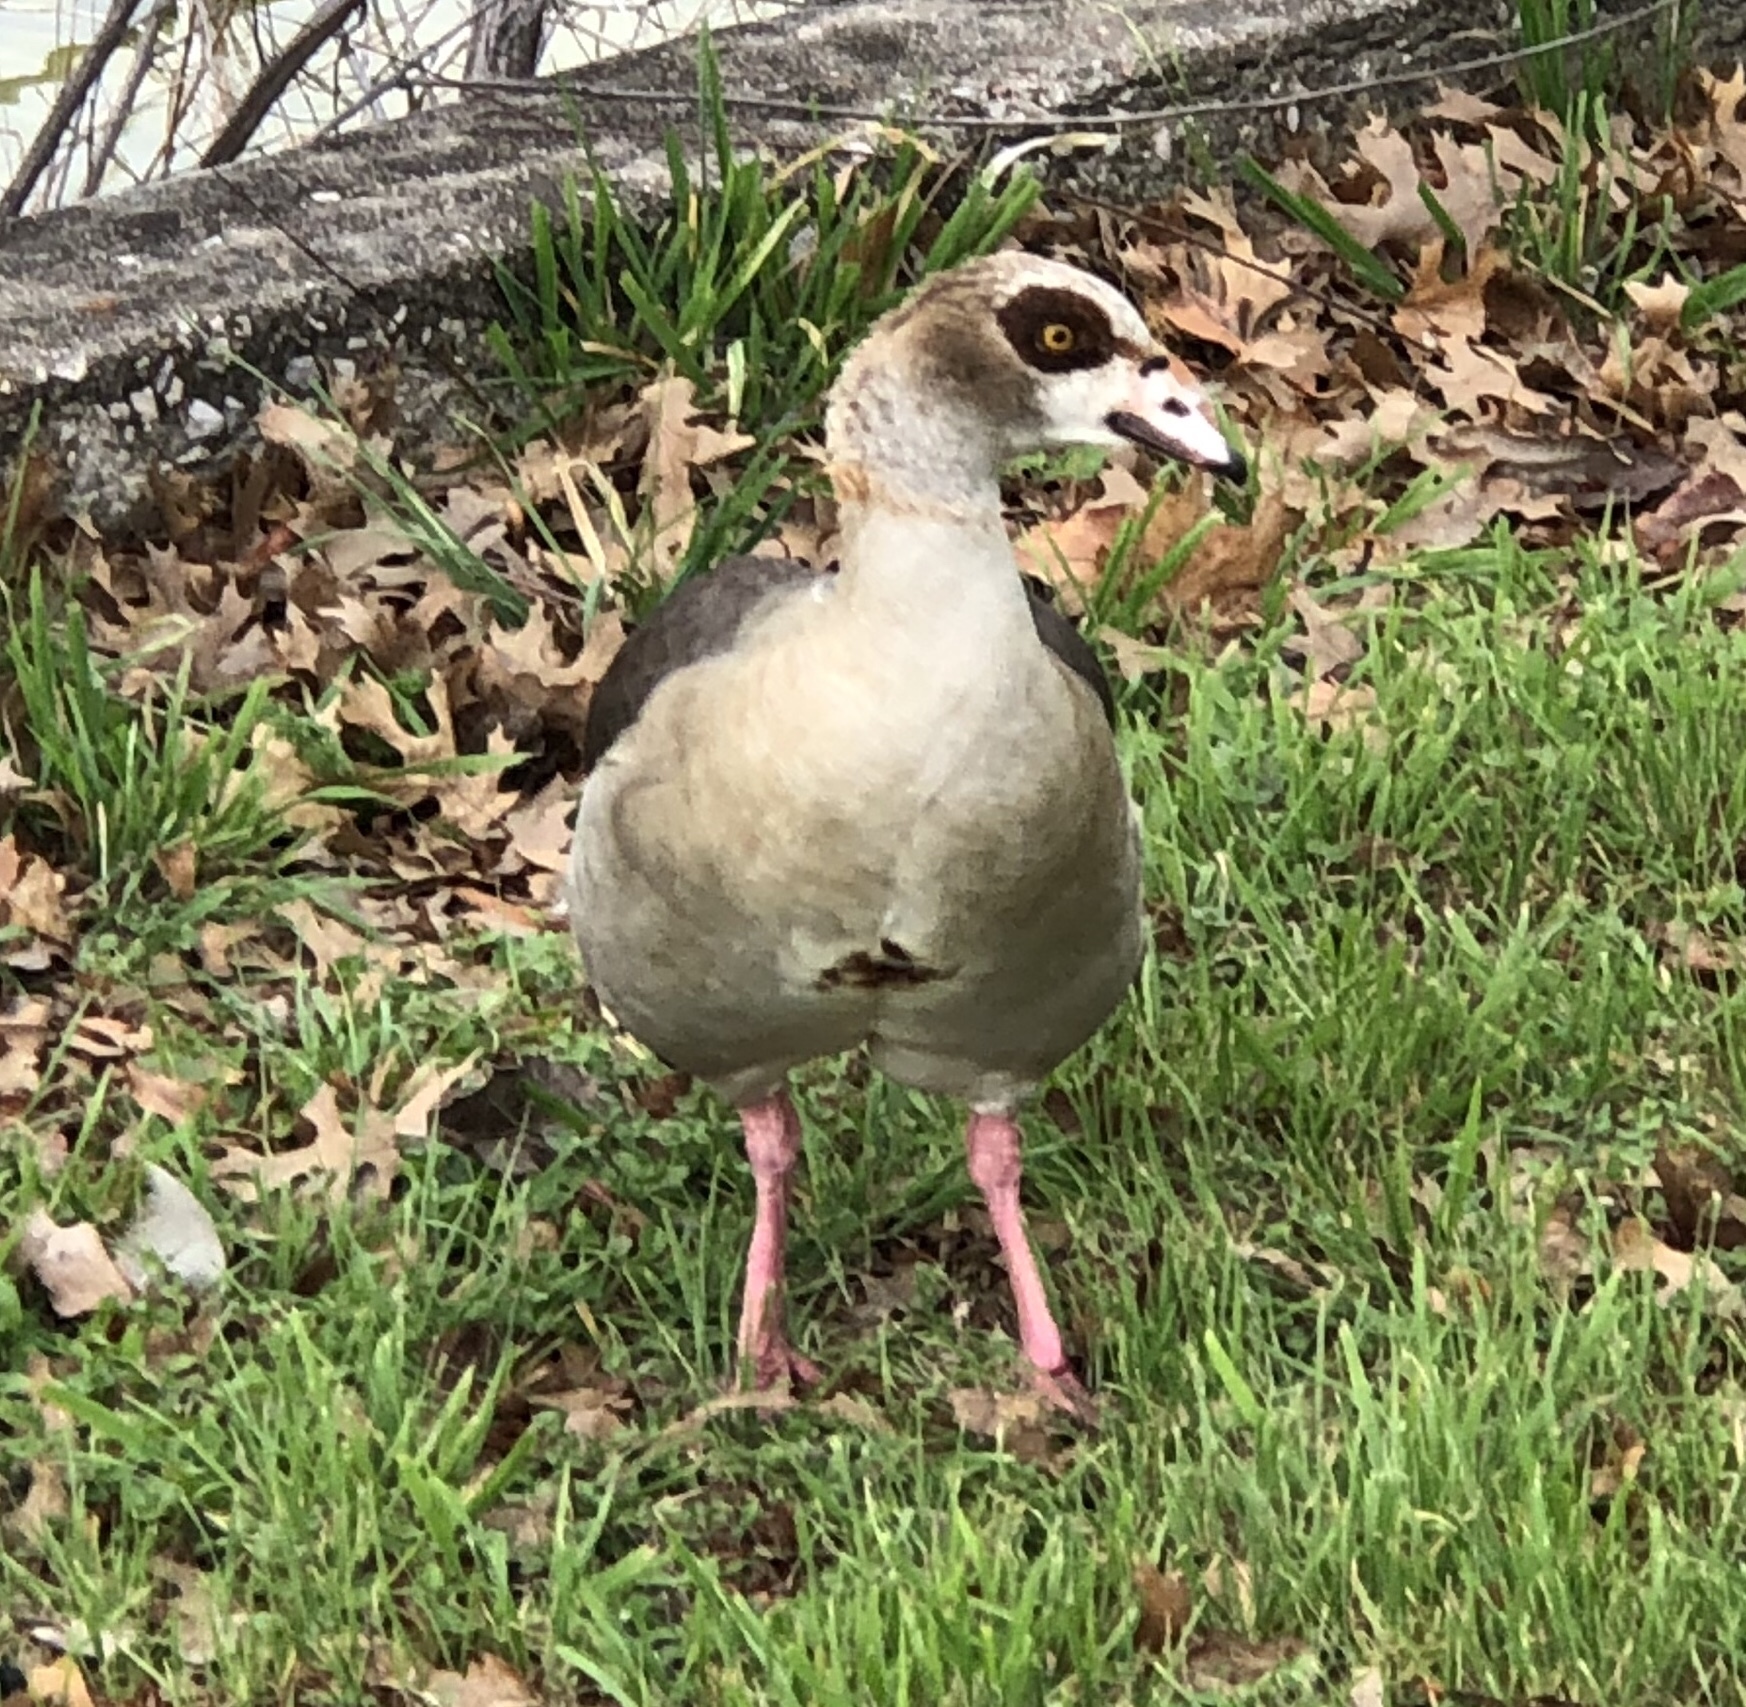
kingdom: Animalia
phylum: Chordata
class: Aves
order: Anseriformes
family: Anatidae
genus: Alopochen
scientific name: Alopochen aegyptiaca
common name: Egyptian goose
